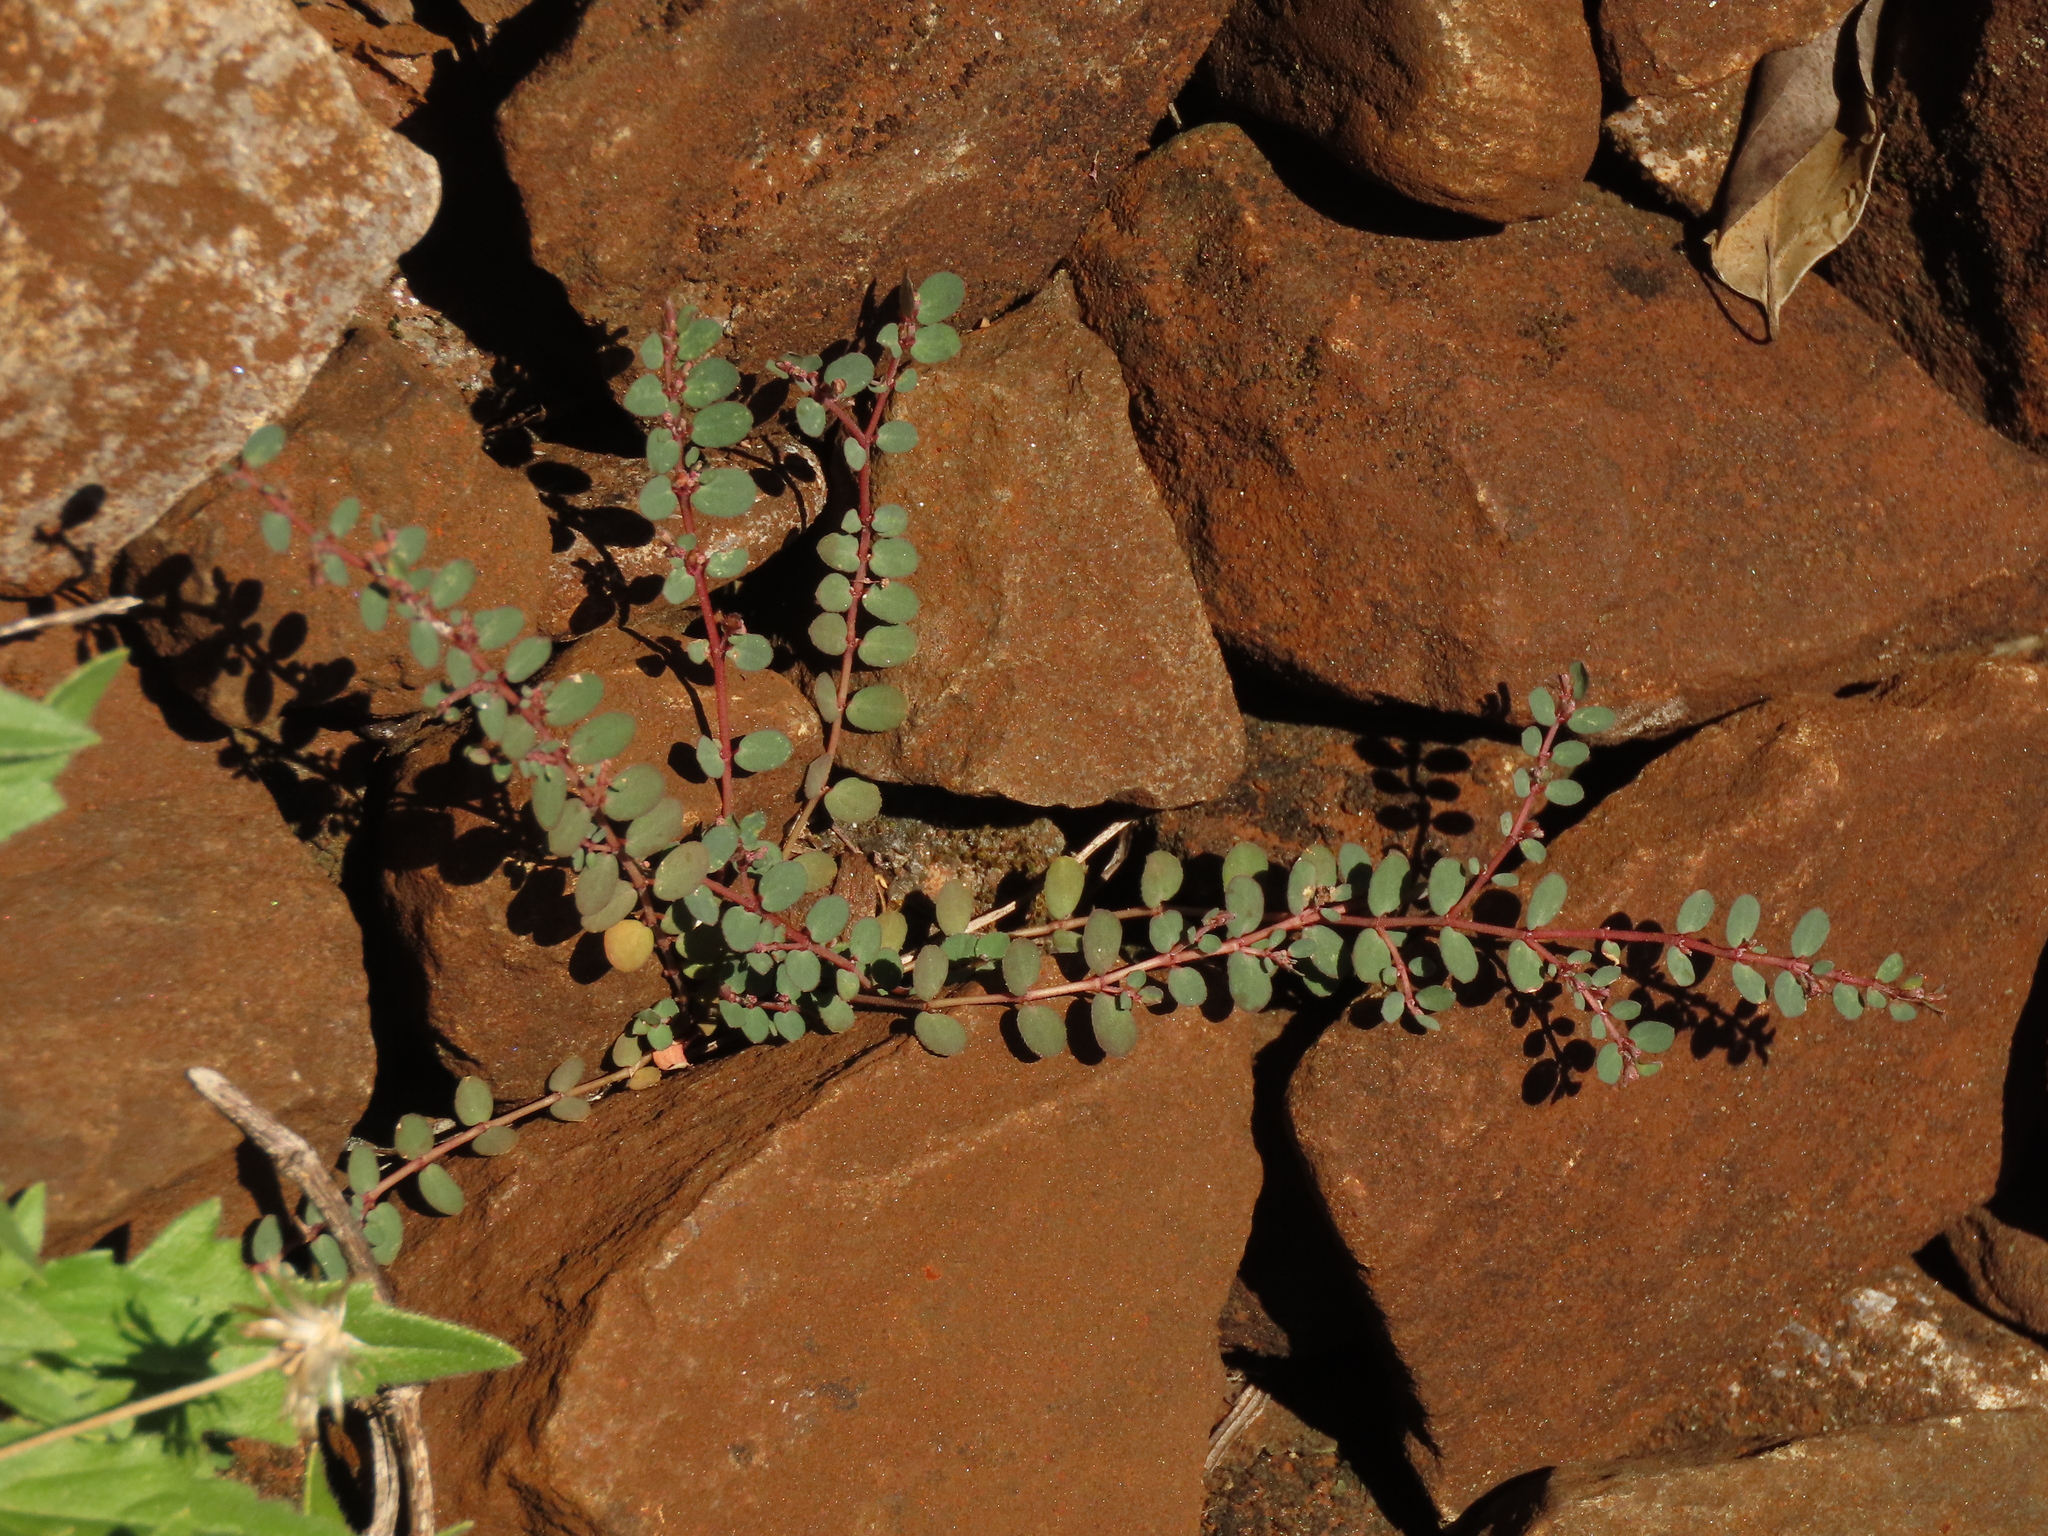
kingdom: Plantae
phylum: Tracheophyta
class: Magnoliopsida
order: Malpighiales
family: Euphorbiaceae
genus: Euphorbia
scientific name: Euphorbia prostrata
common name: Prostrate sandmat
